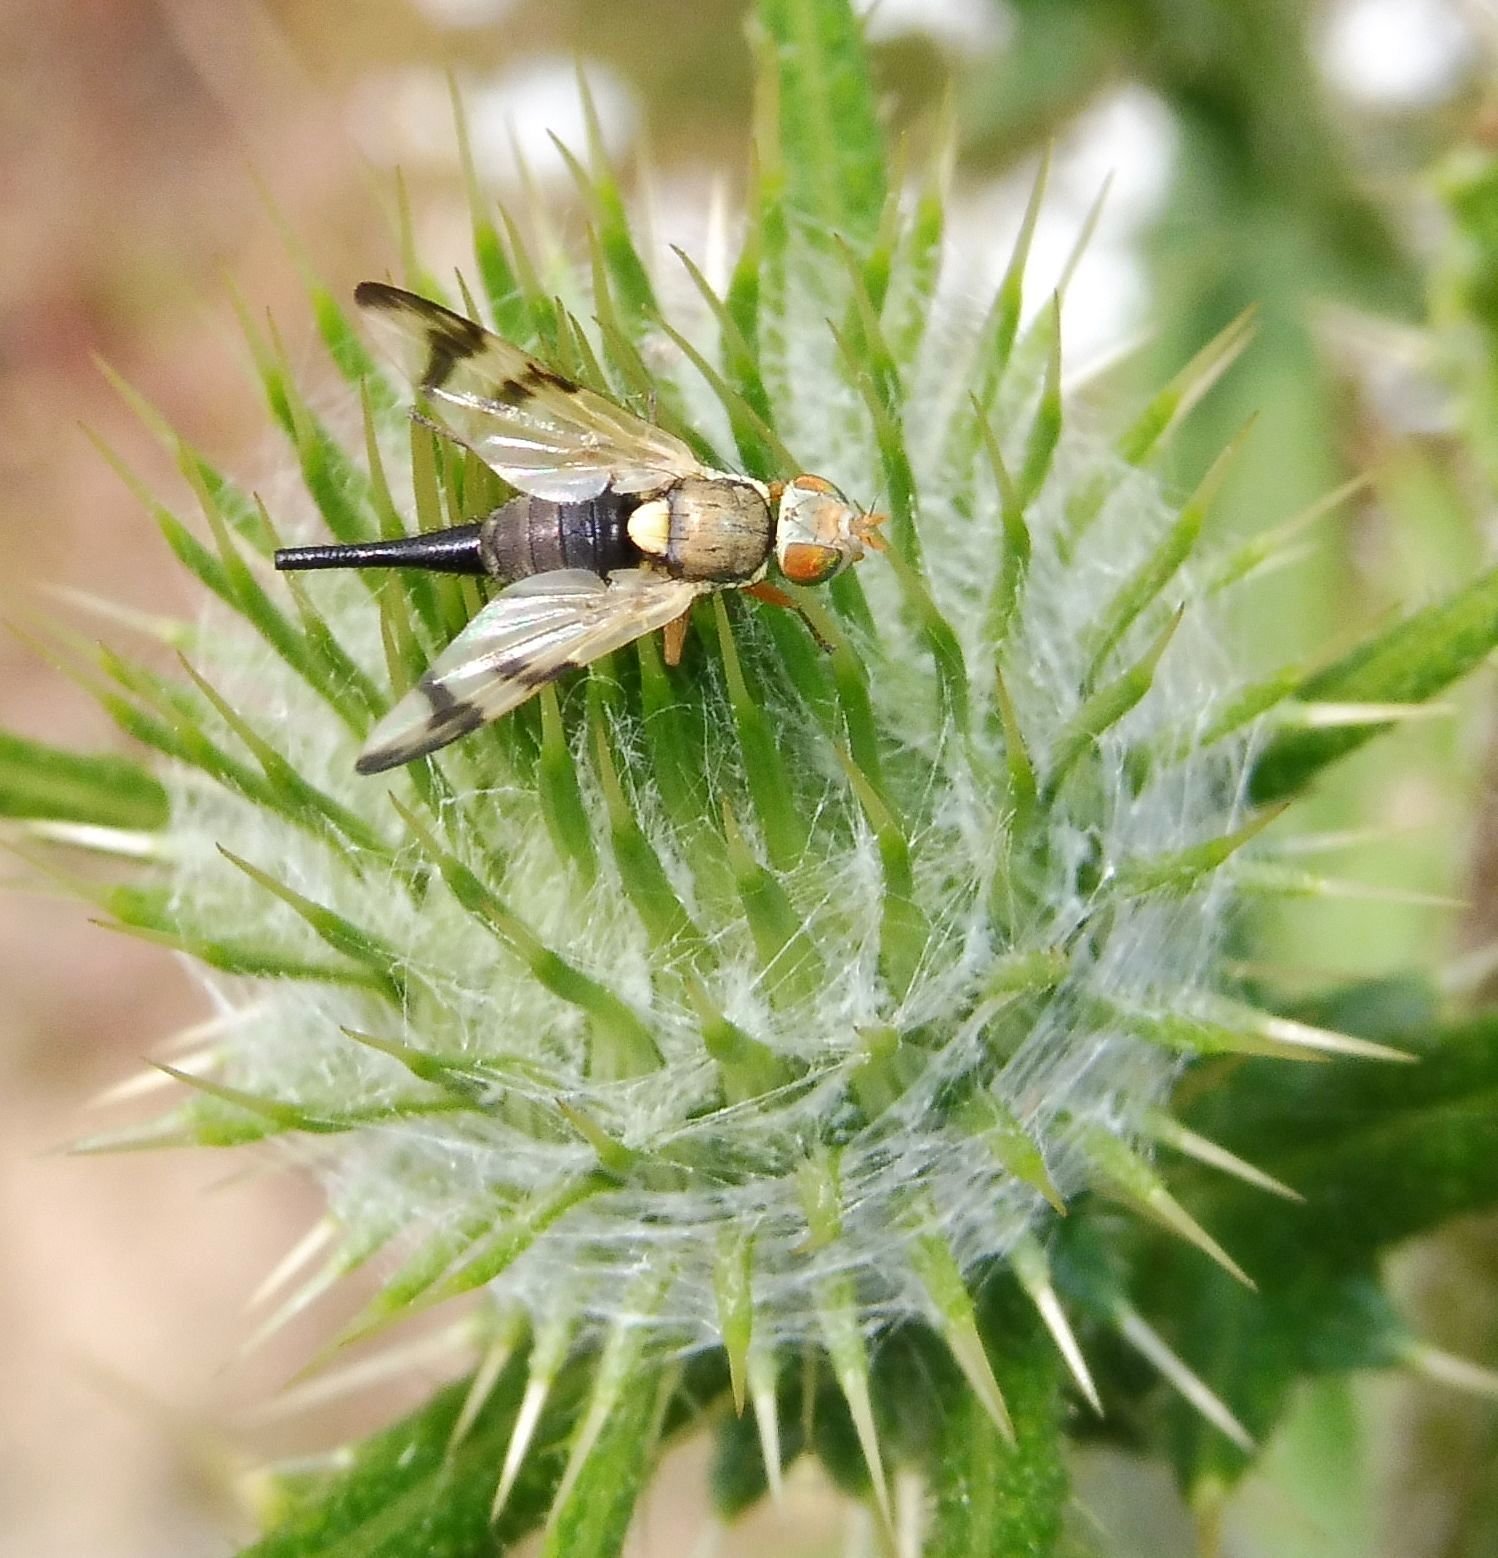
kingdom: Animalia
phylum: Arthropoda
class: Insecta
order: Diptera
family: Tephritidae
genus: Urophora
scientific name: Urophora stylata
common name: Fruit fly
